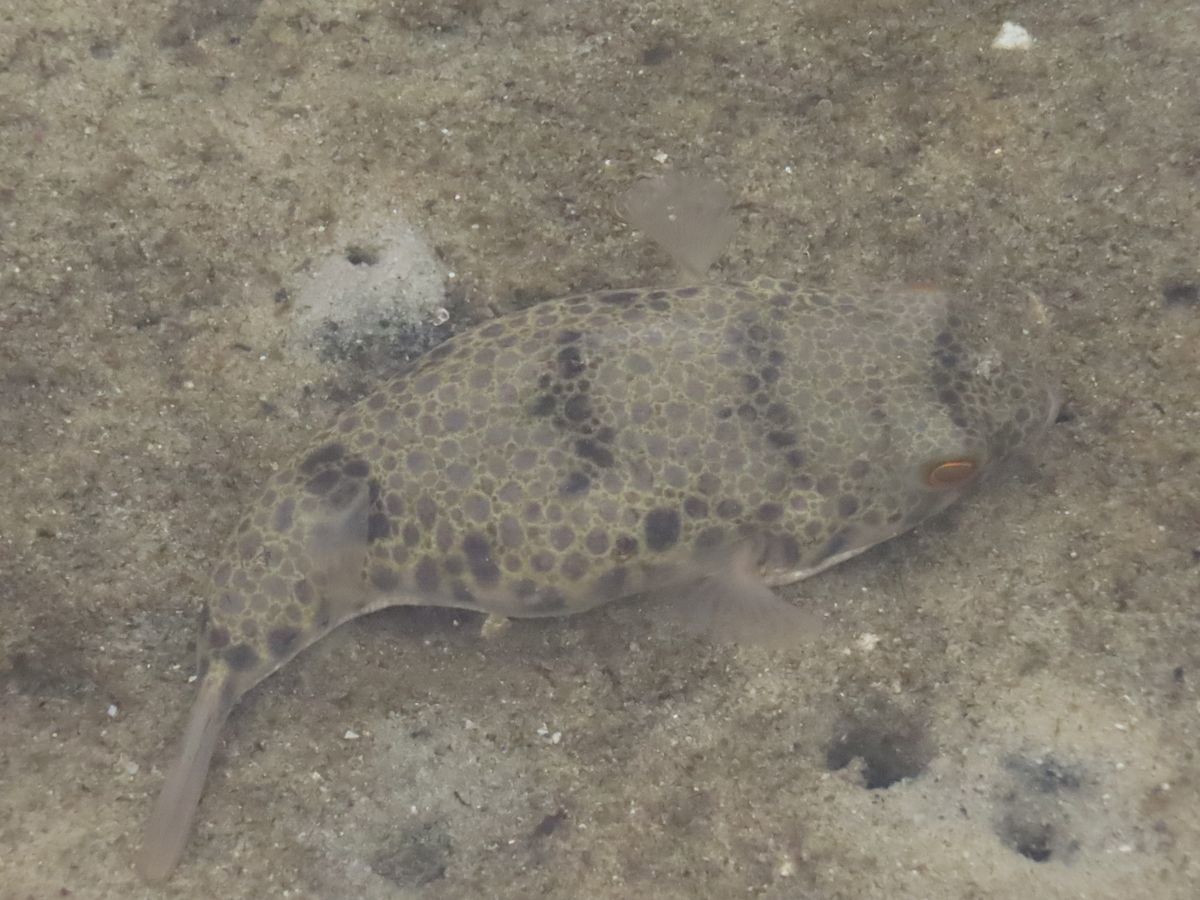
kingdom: Animalia
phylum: Chordata
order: Tetraodontiformes
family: Tetraodontidae
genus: Tetractenos
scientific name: Tetractenos glaber
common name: Smooth toadfish
